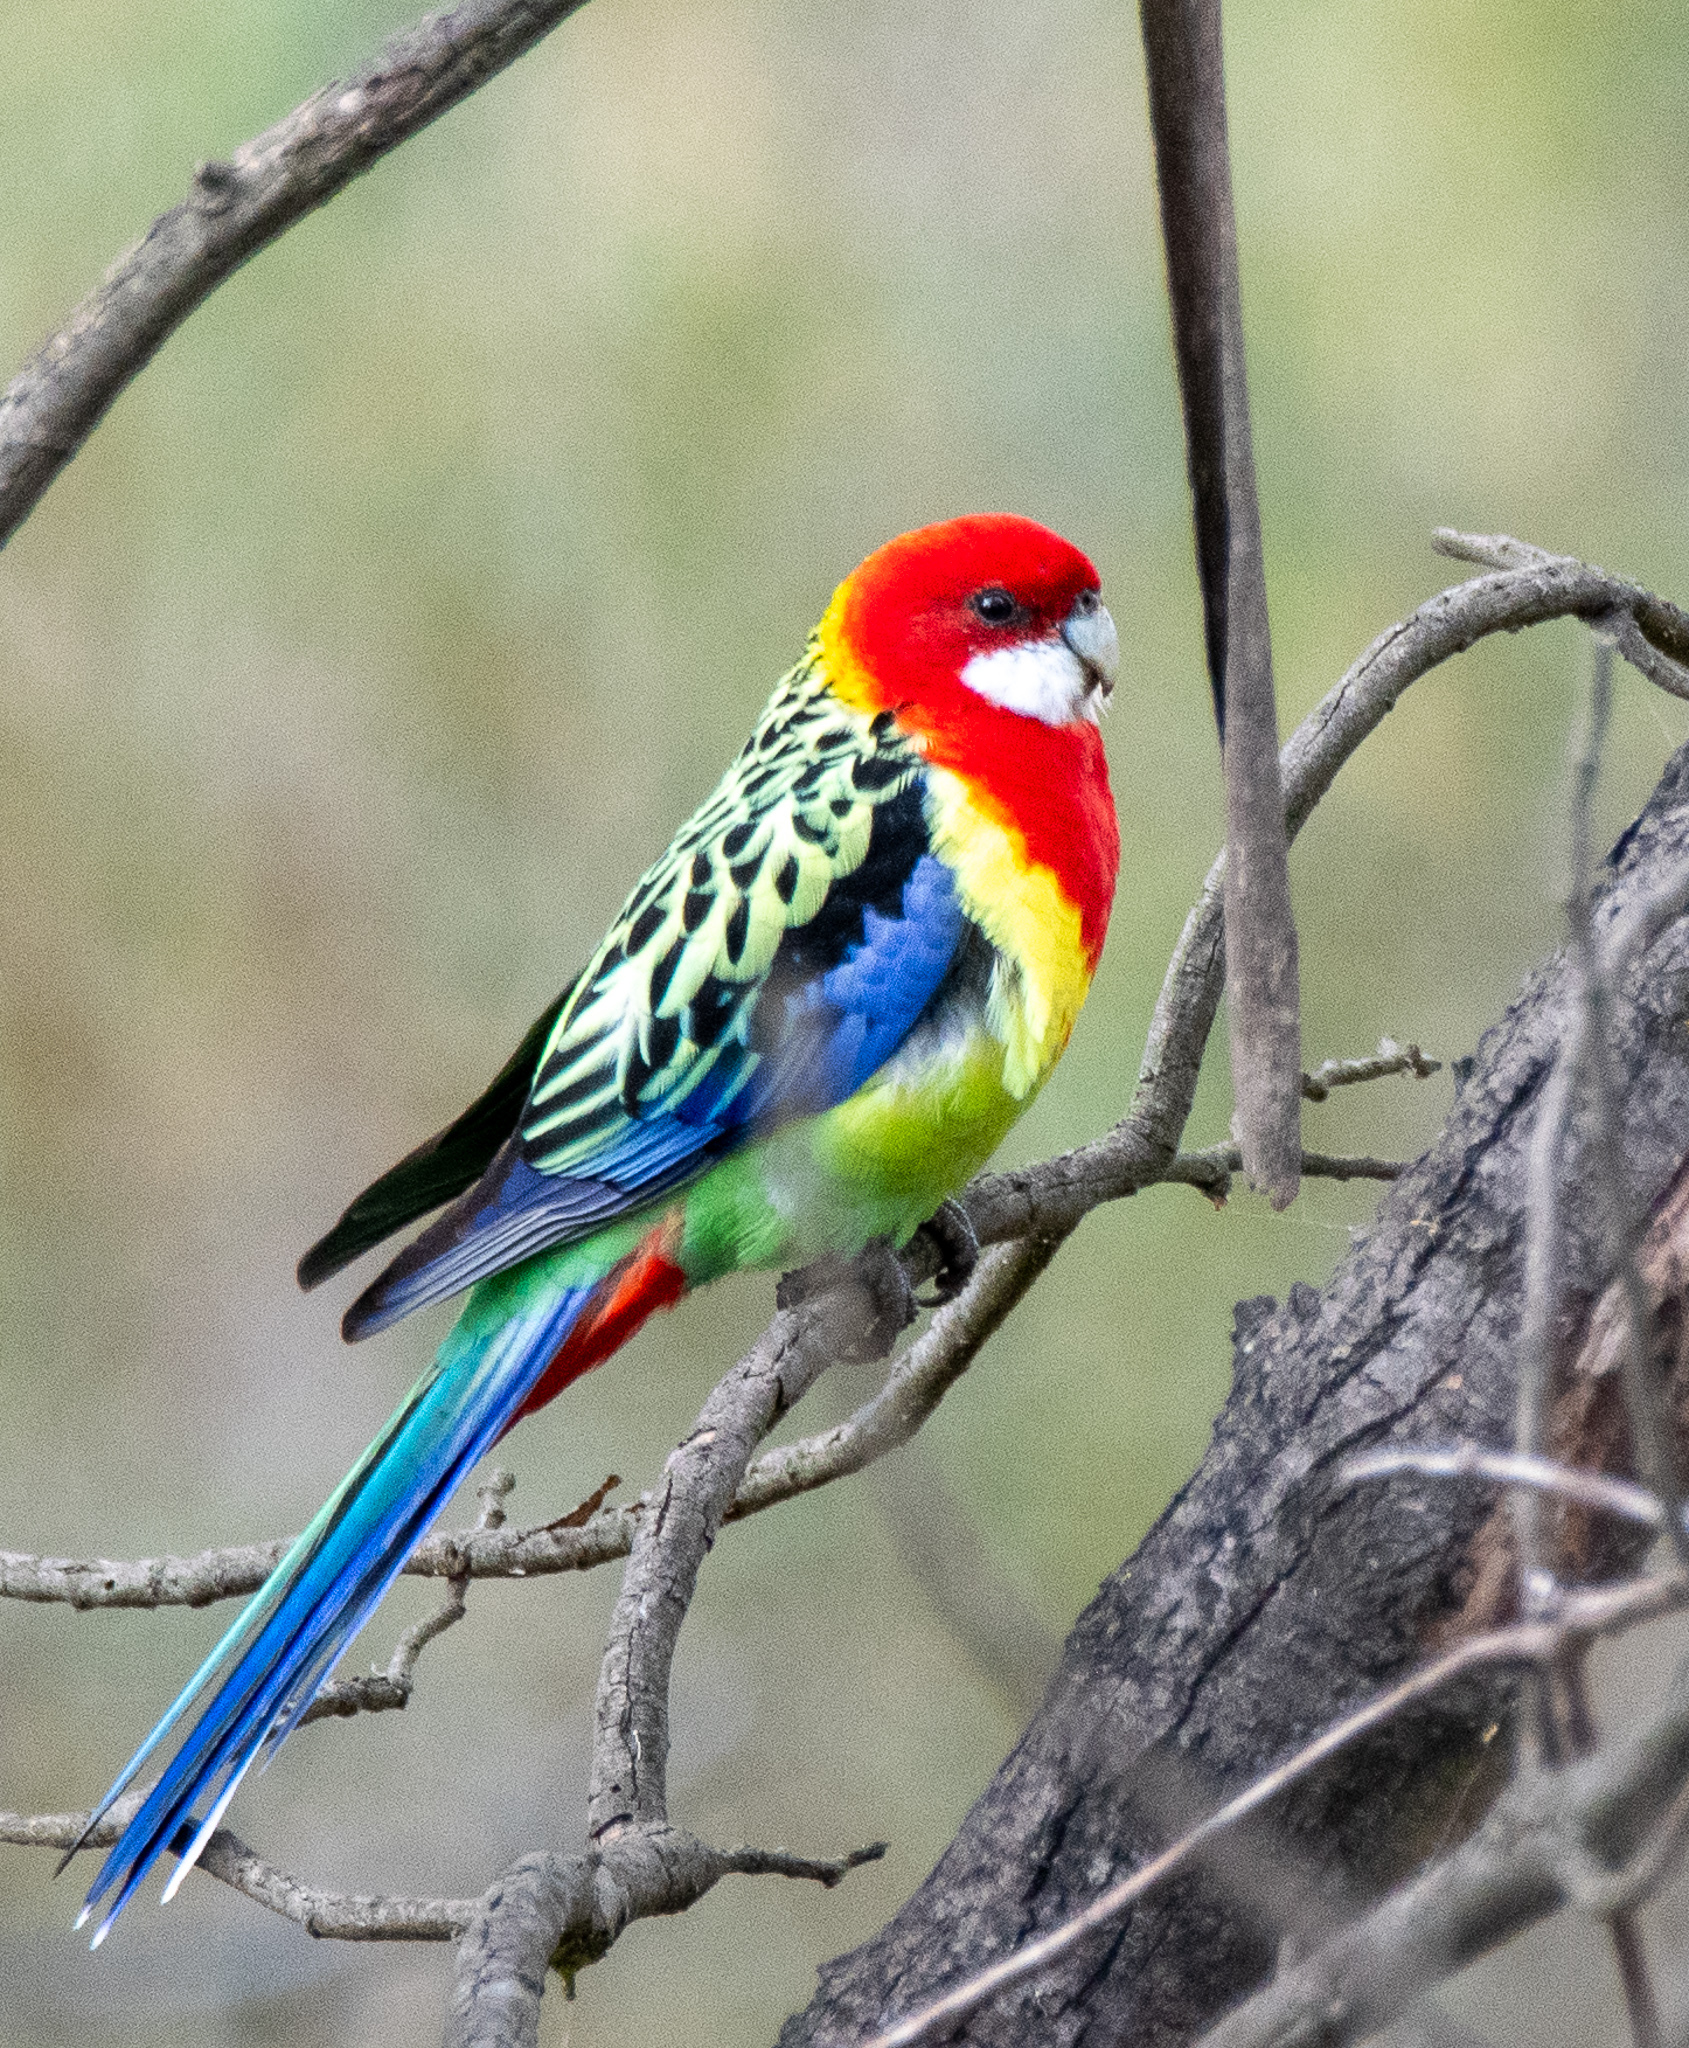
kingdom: Animalia
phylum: Chordata
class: Aves
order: Psittaciformes
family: Psittacidae
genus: Platycercus
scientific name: Platycercus eximius
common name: Eastern rosella
